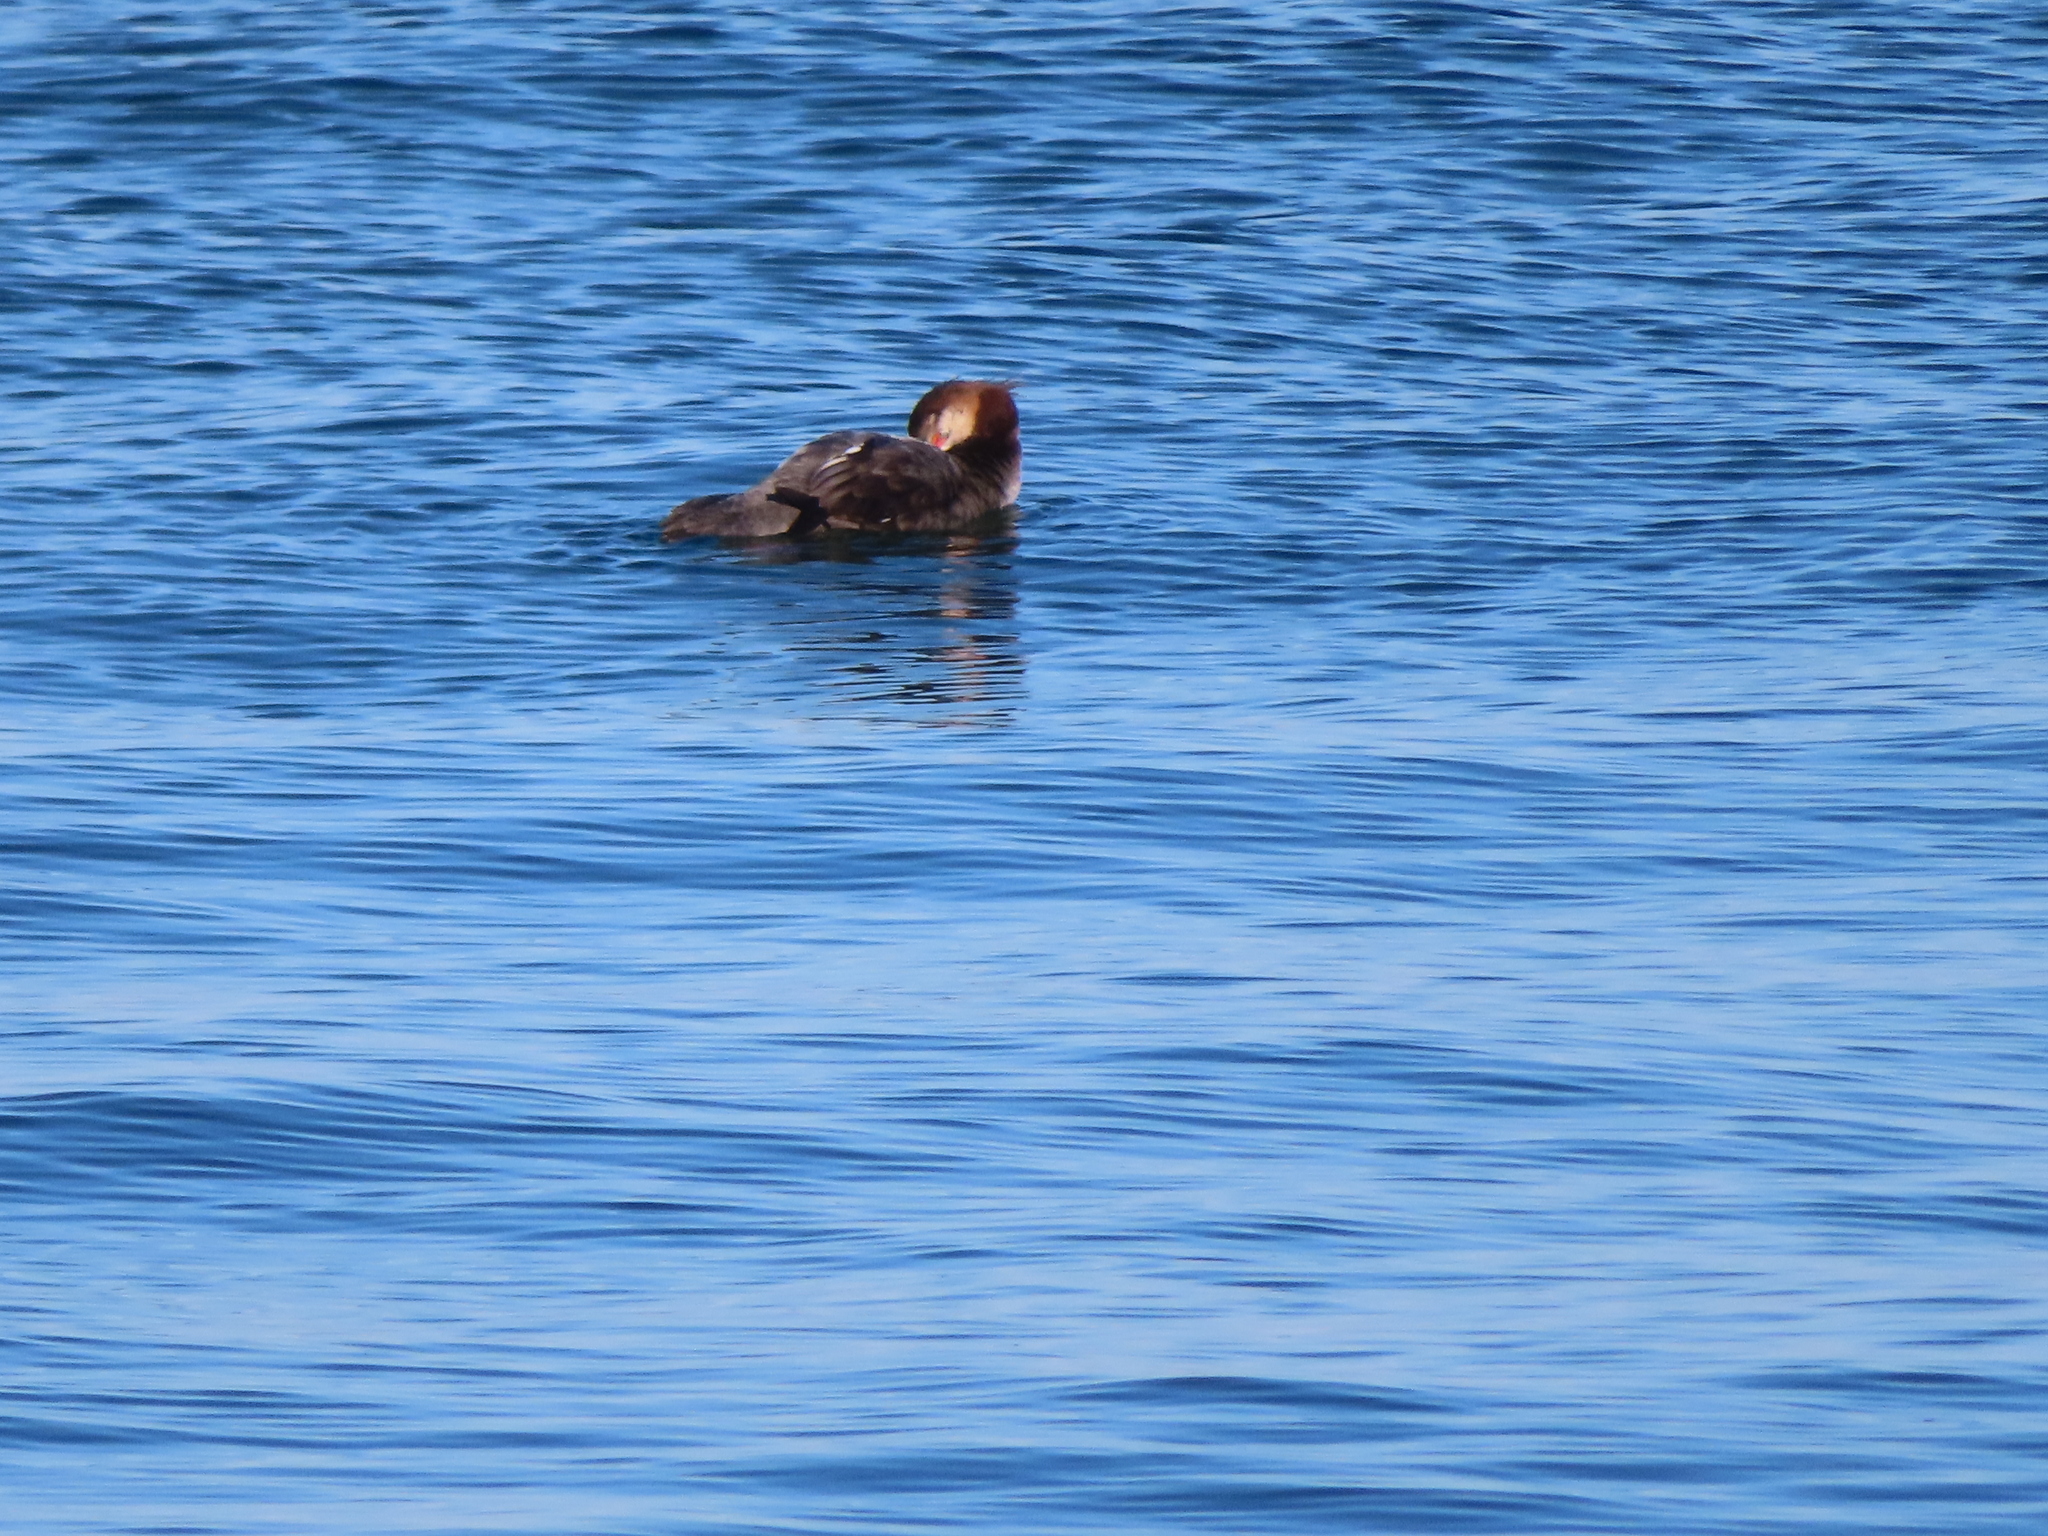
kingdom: Animalia
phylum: Chordata
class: Aves
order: Anseriformes
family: Anatidae
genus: Mergus
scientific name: Mergus serrator
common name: Red-breasted merganser
